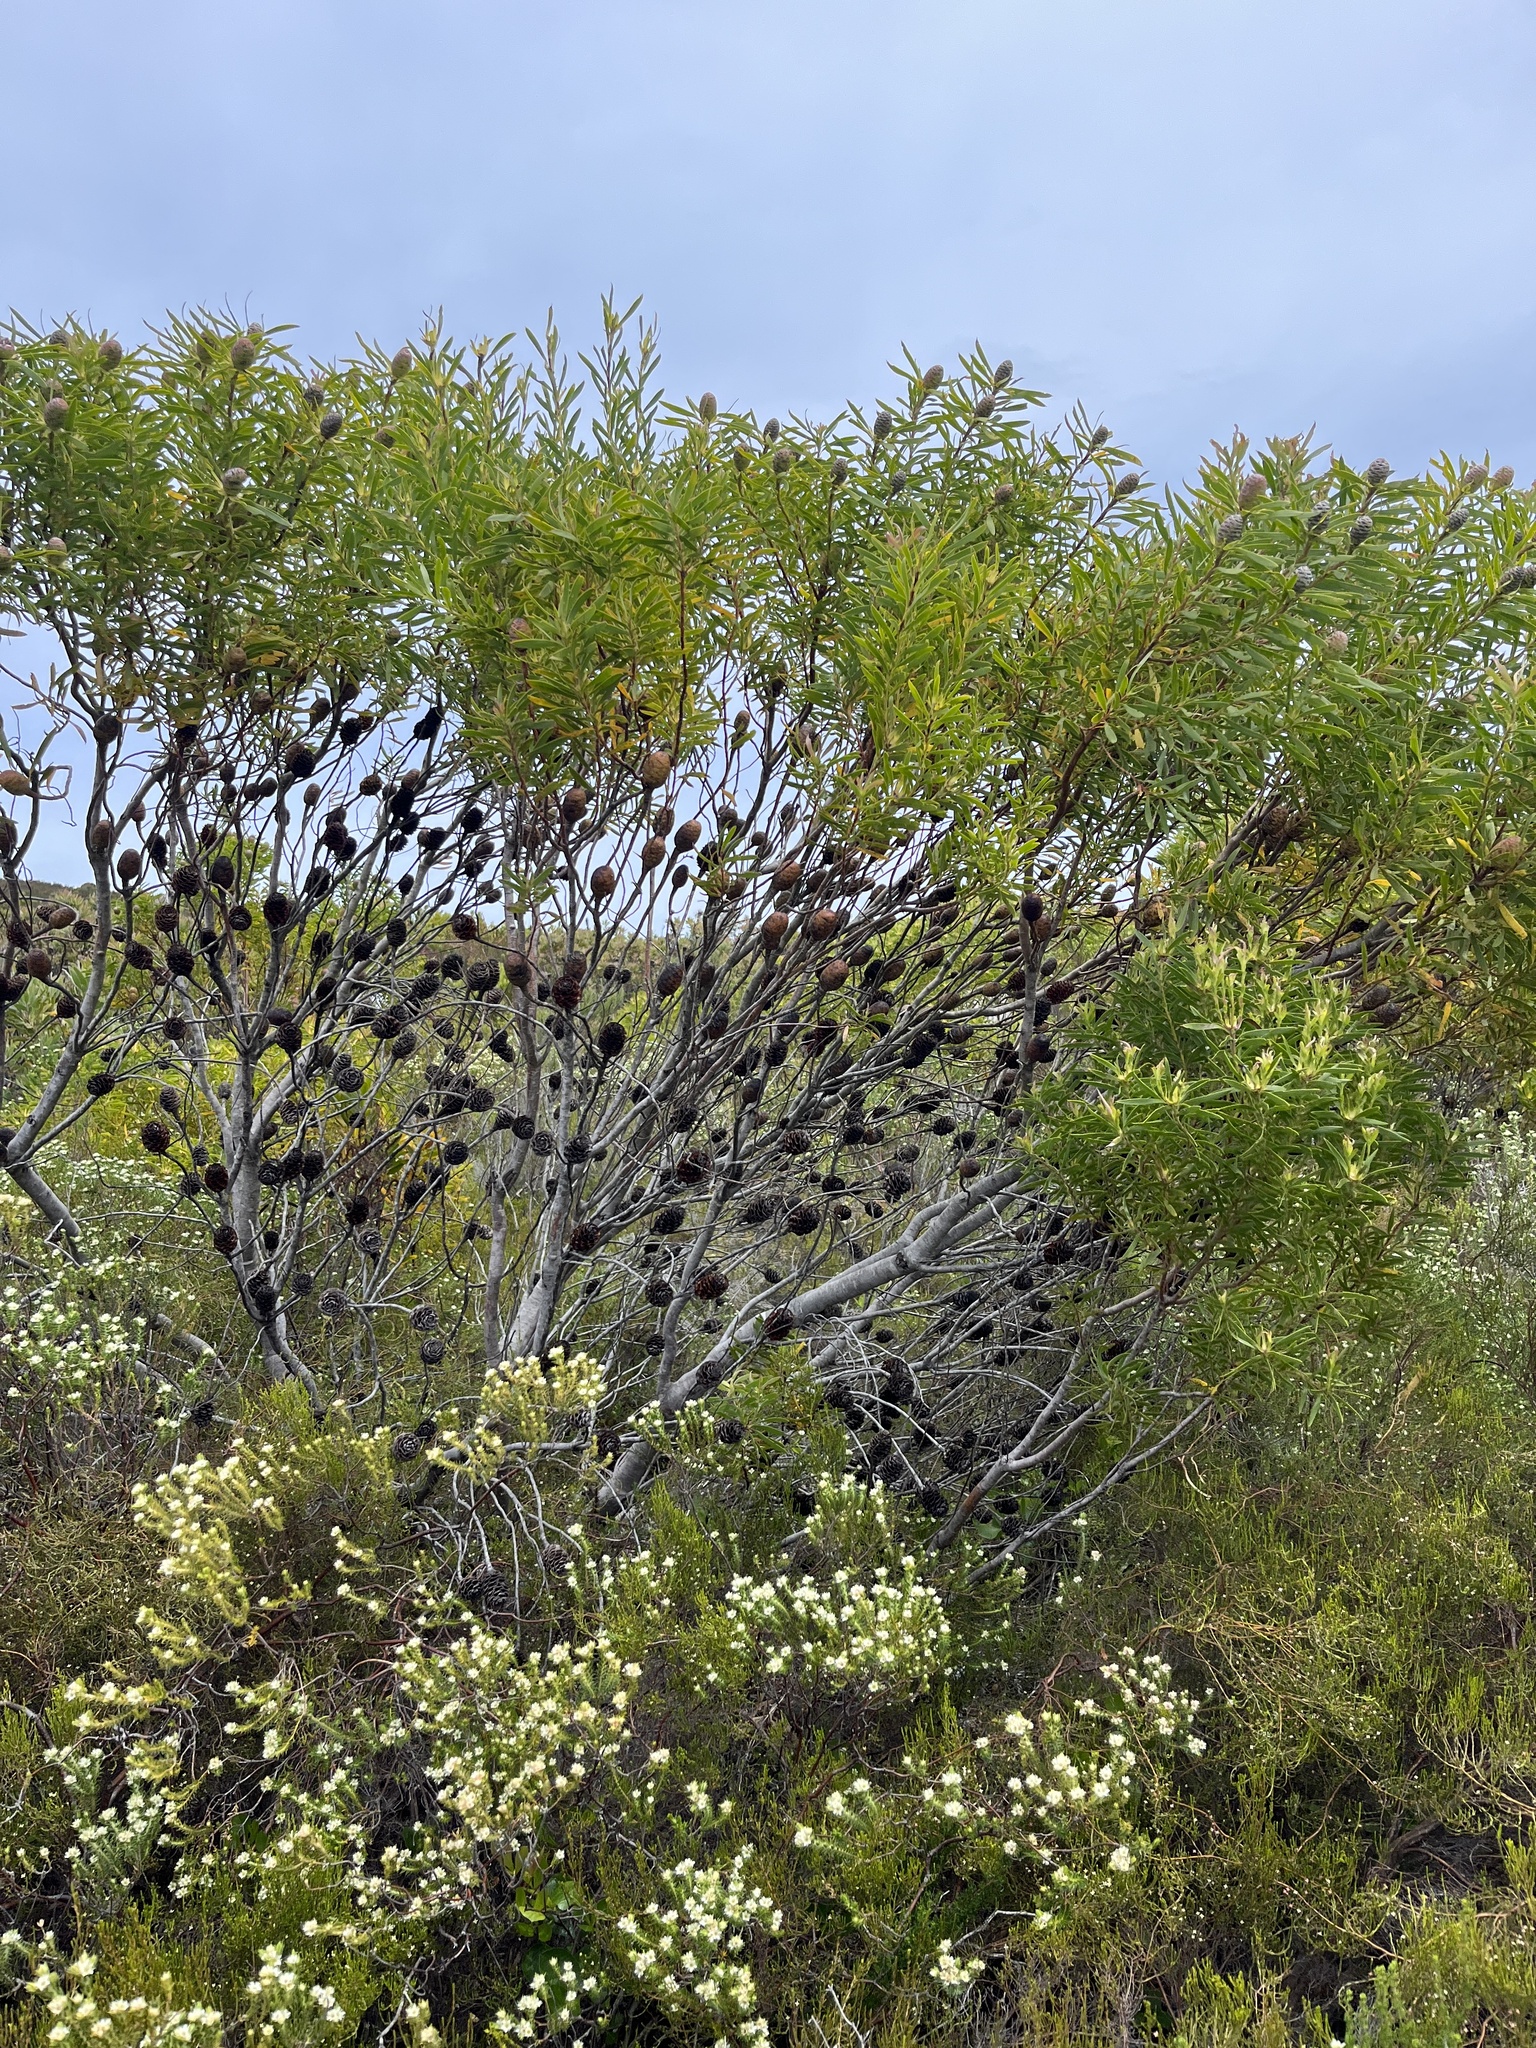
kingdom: Plantae
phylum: Tracheophyta
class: Magnoliopsida
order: Proteales
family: Proteaceae
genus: Leucadendron
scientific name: Leucadendron coniferum
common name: Dune conebush
